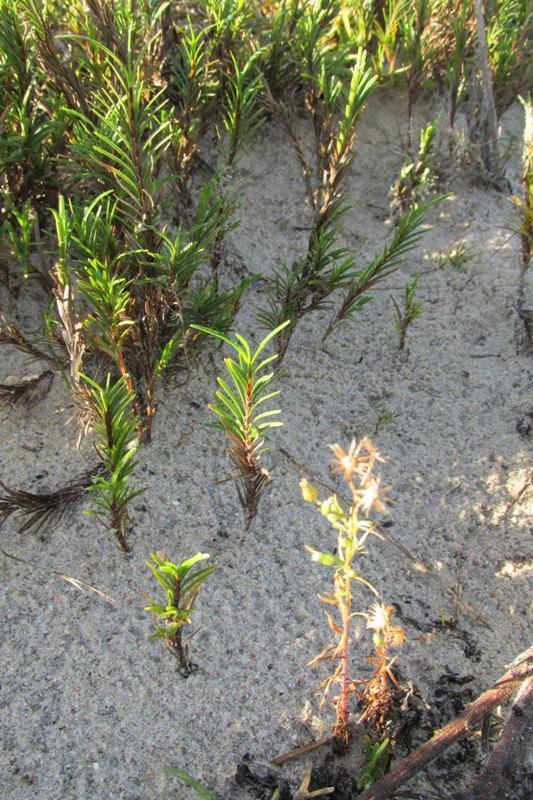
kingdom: Plantae
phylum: Tracheophyta
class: Liliopsida
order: Poales
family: Cyperaceae
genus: Ficinia
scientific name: Ficinia ramosissima
